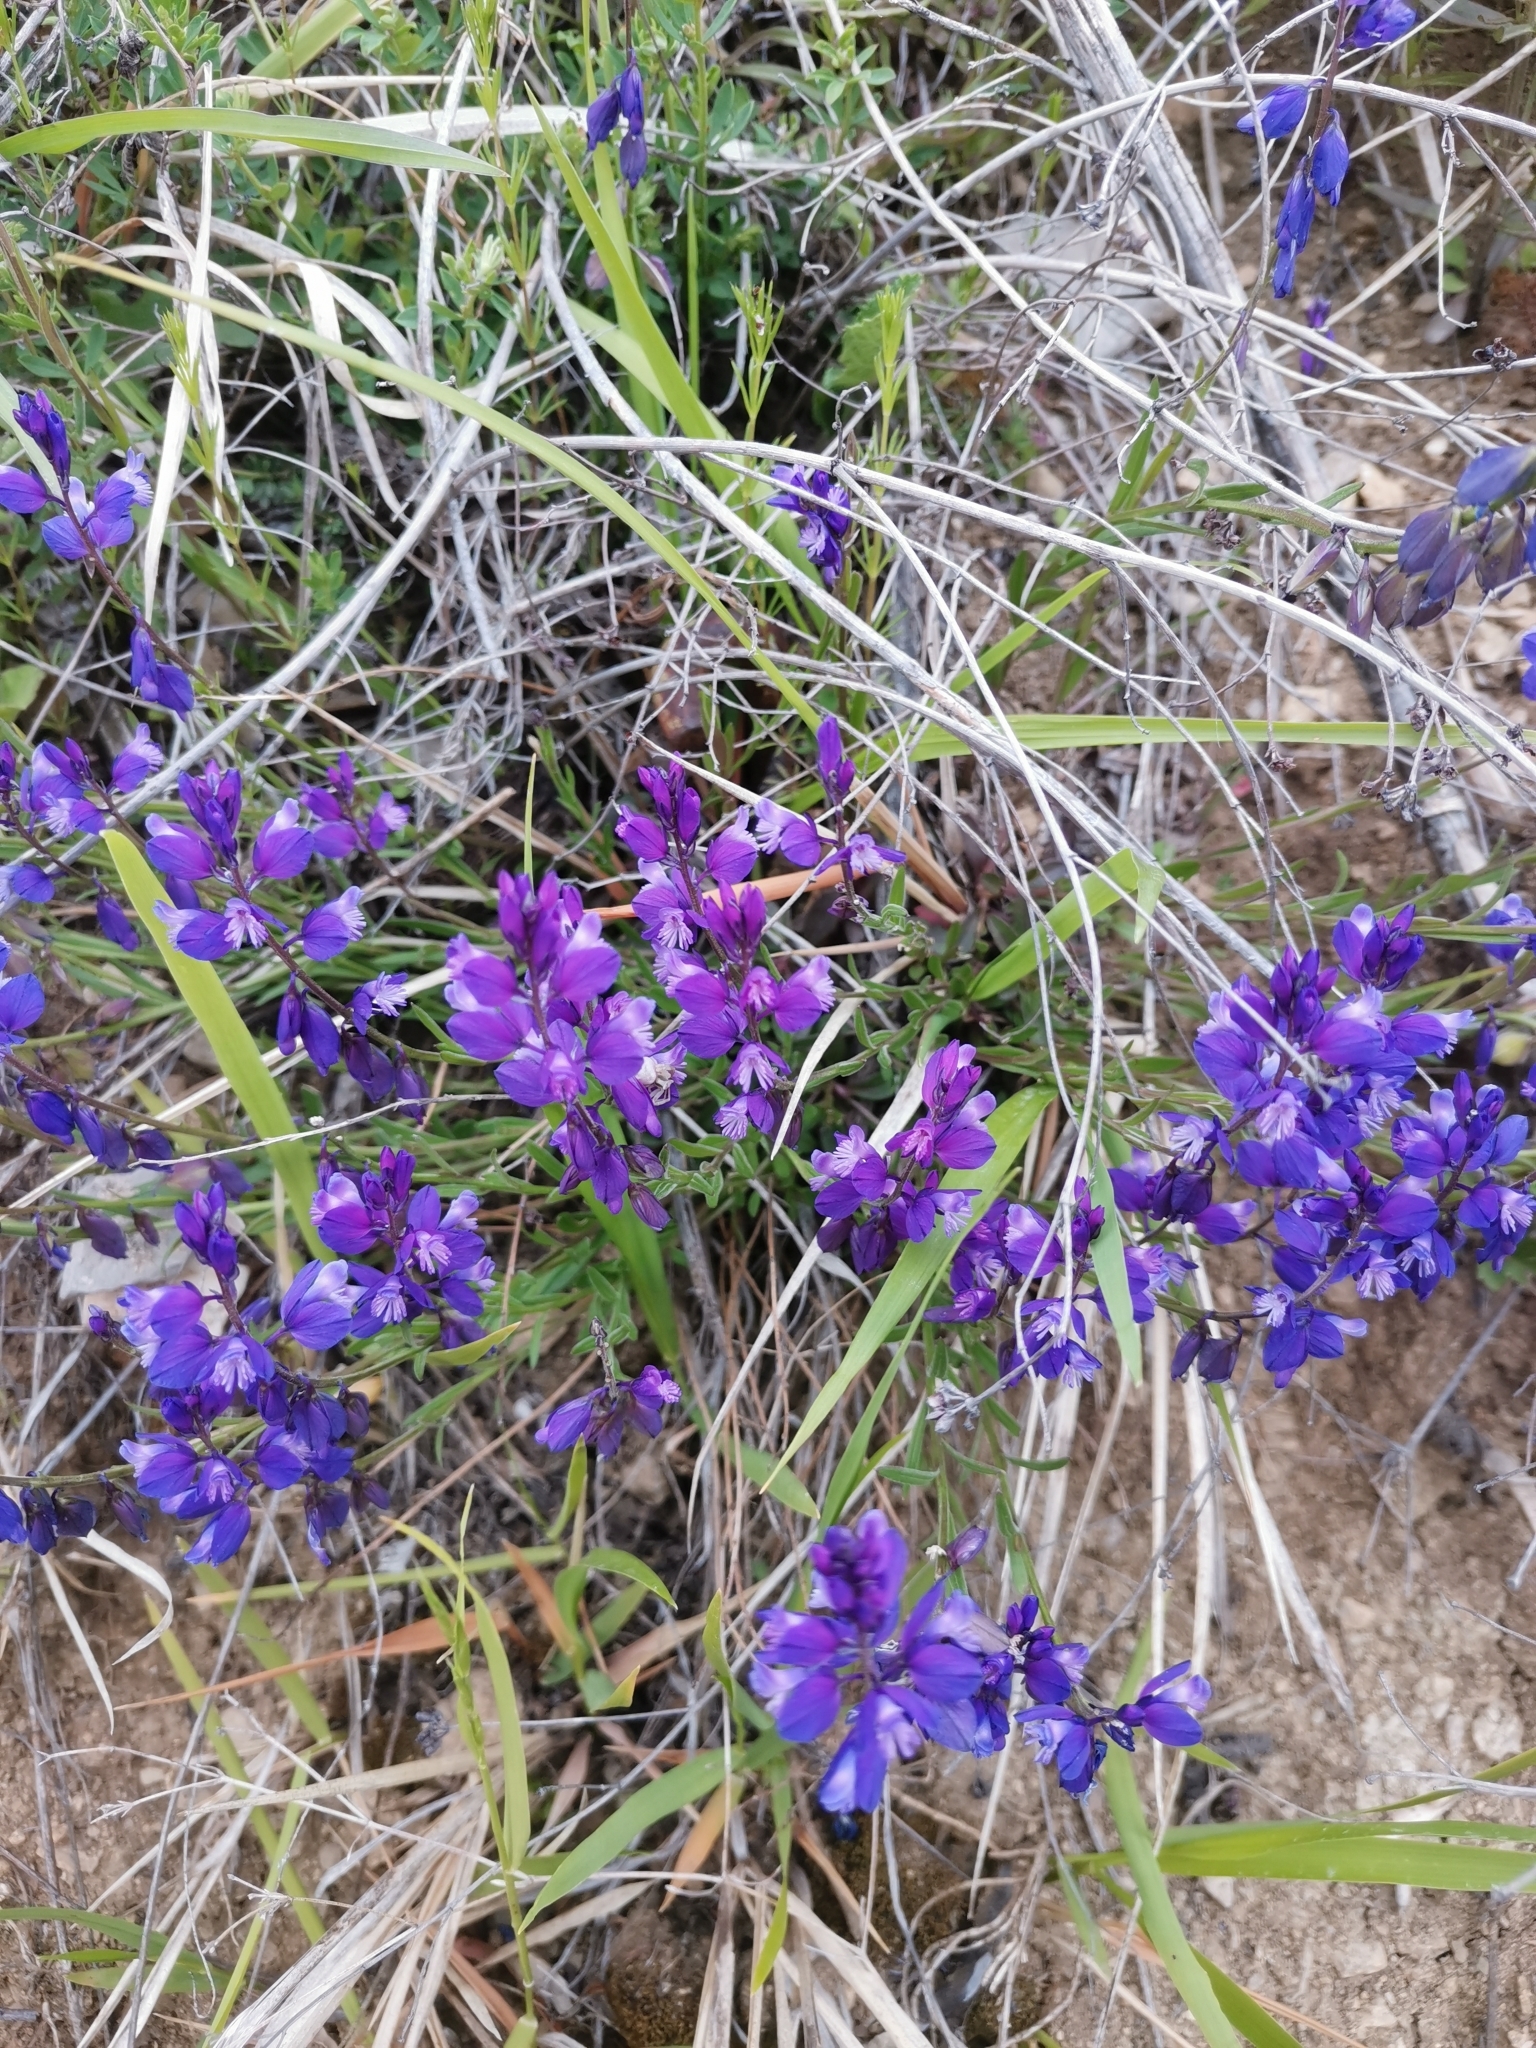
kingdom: Plantae
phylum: Tracheophyta
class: Magnoliopsida
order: Fabales
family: Polygalaceae
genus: Polygala
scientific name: Polygala nicaeensis
